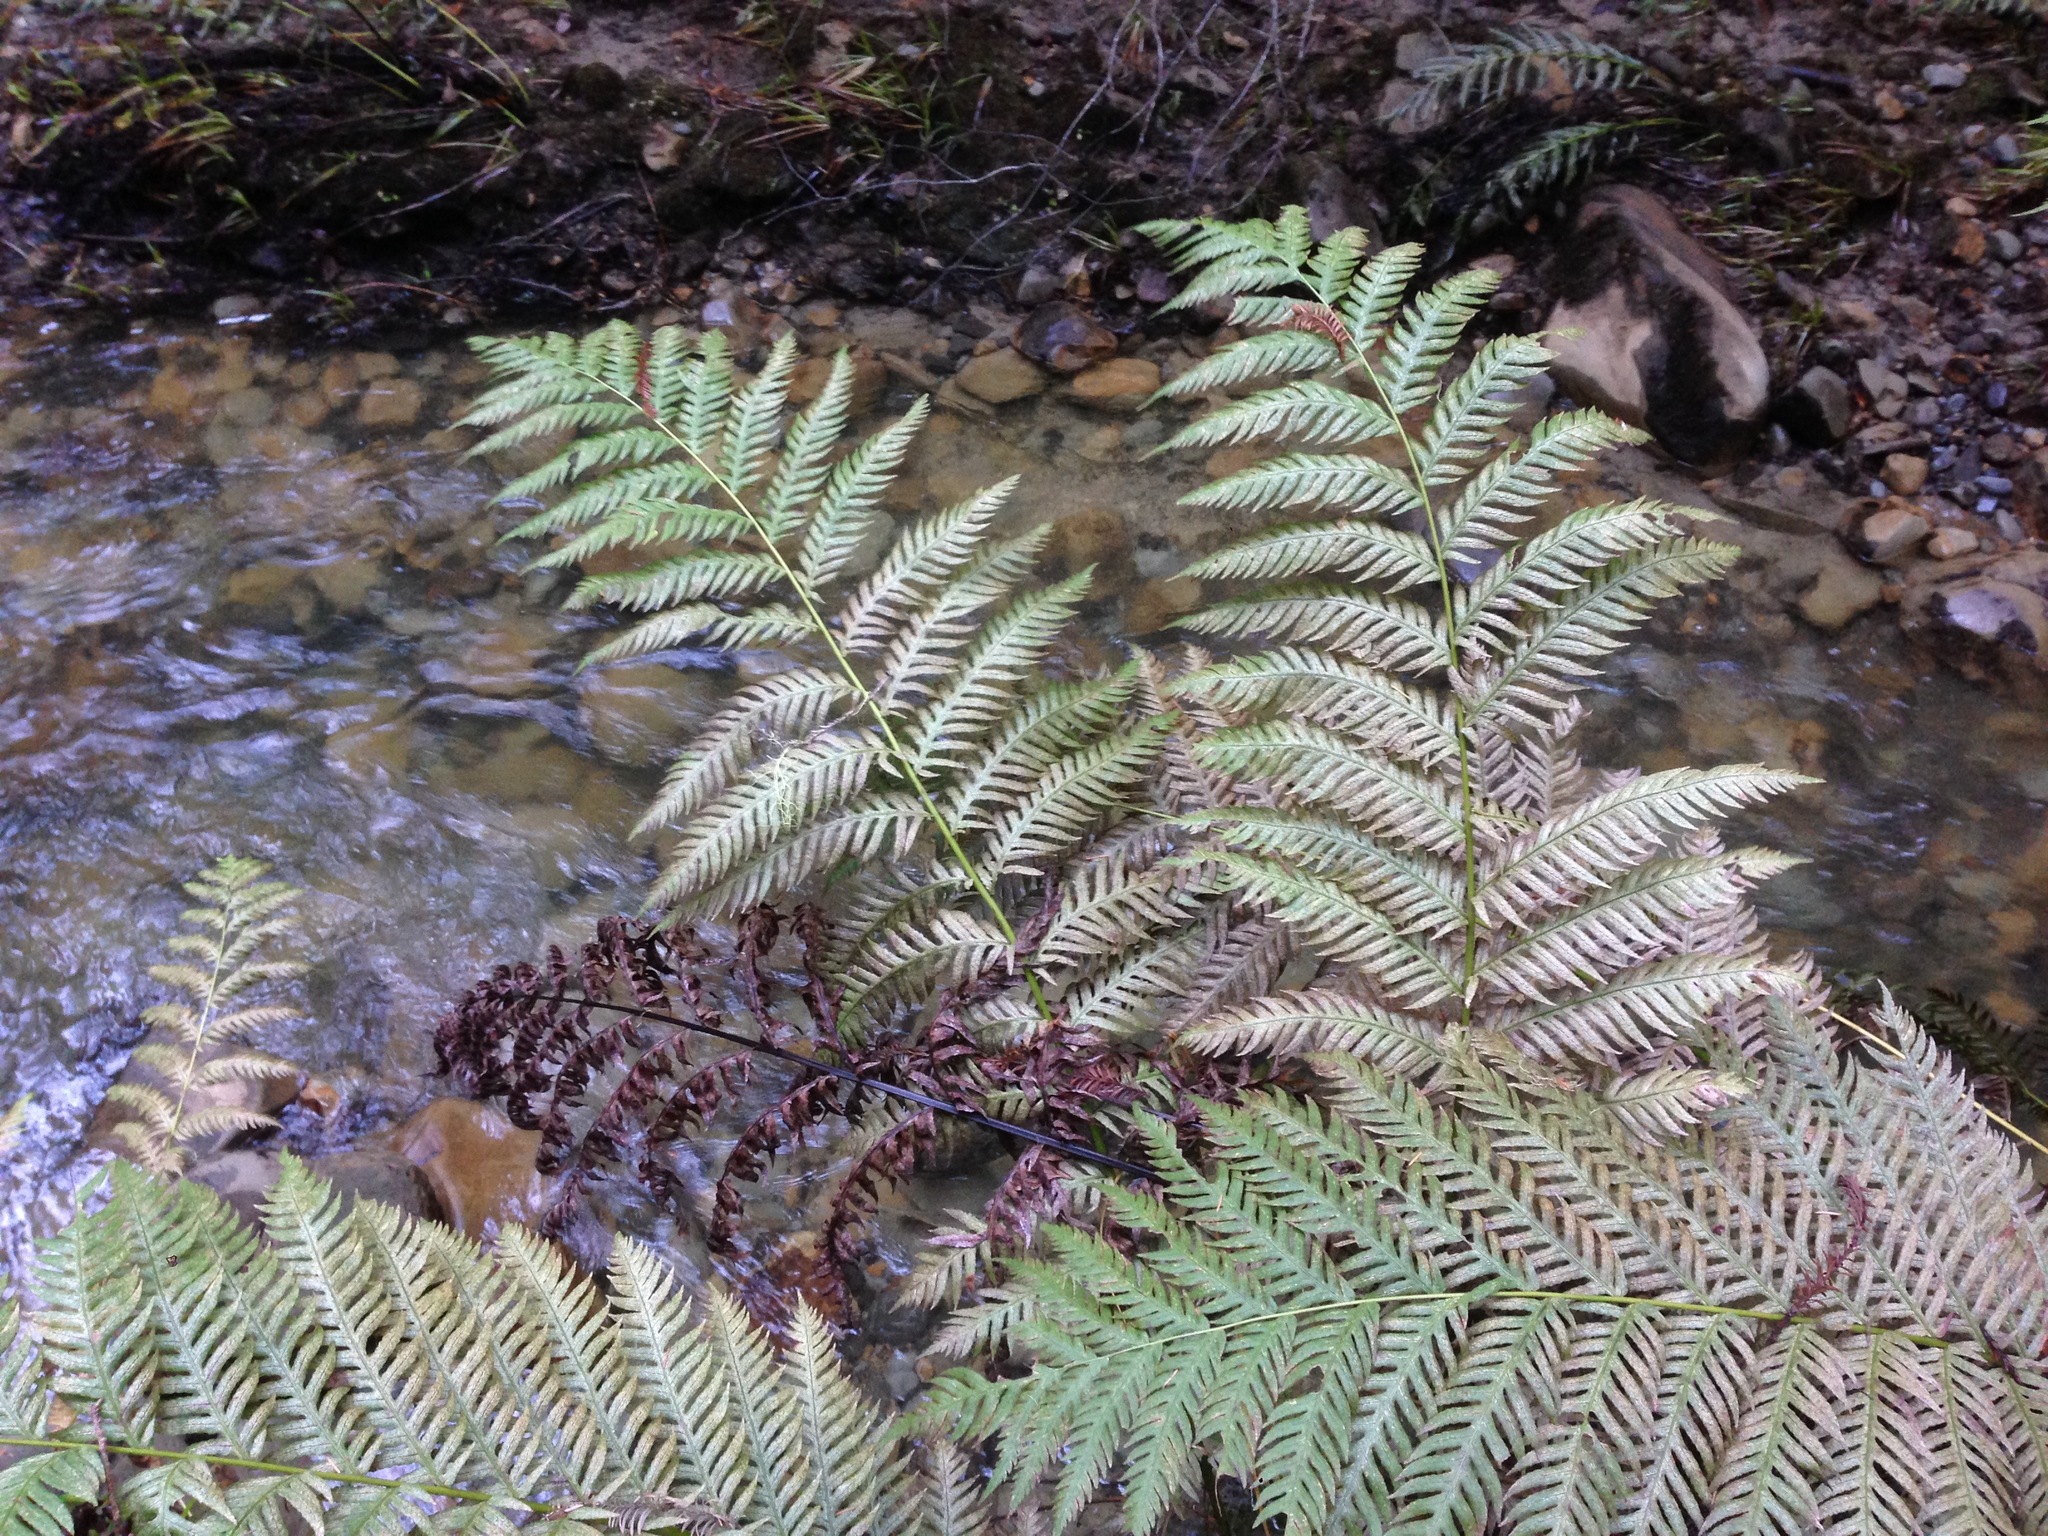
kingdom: Plantae
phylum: Tracheophyta
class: Polypodiopsida
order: Polypodiales
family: Blechnaceae
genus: Woodwardia
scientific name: Woodwardia fimbriata
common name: Giant chain fern
